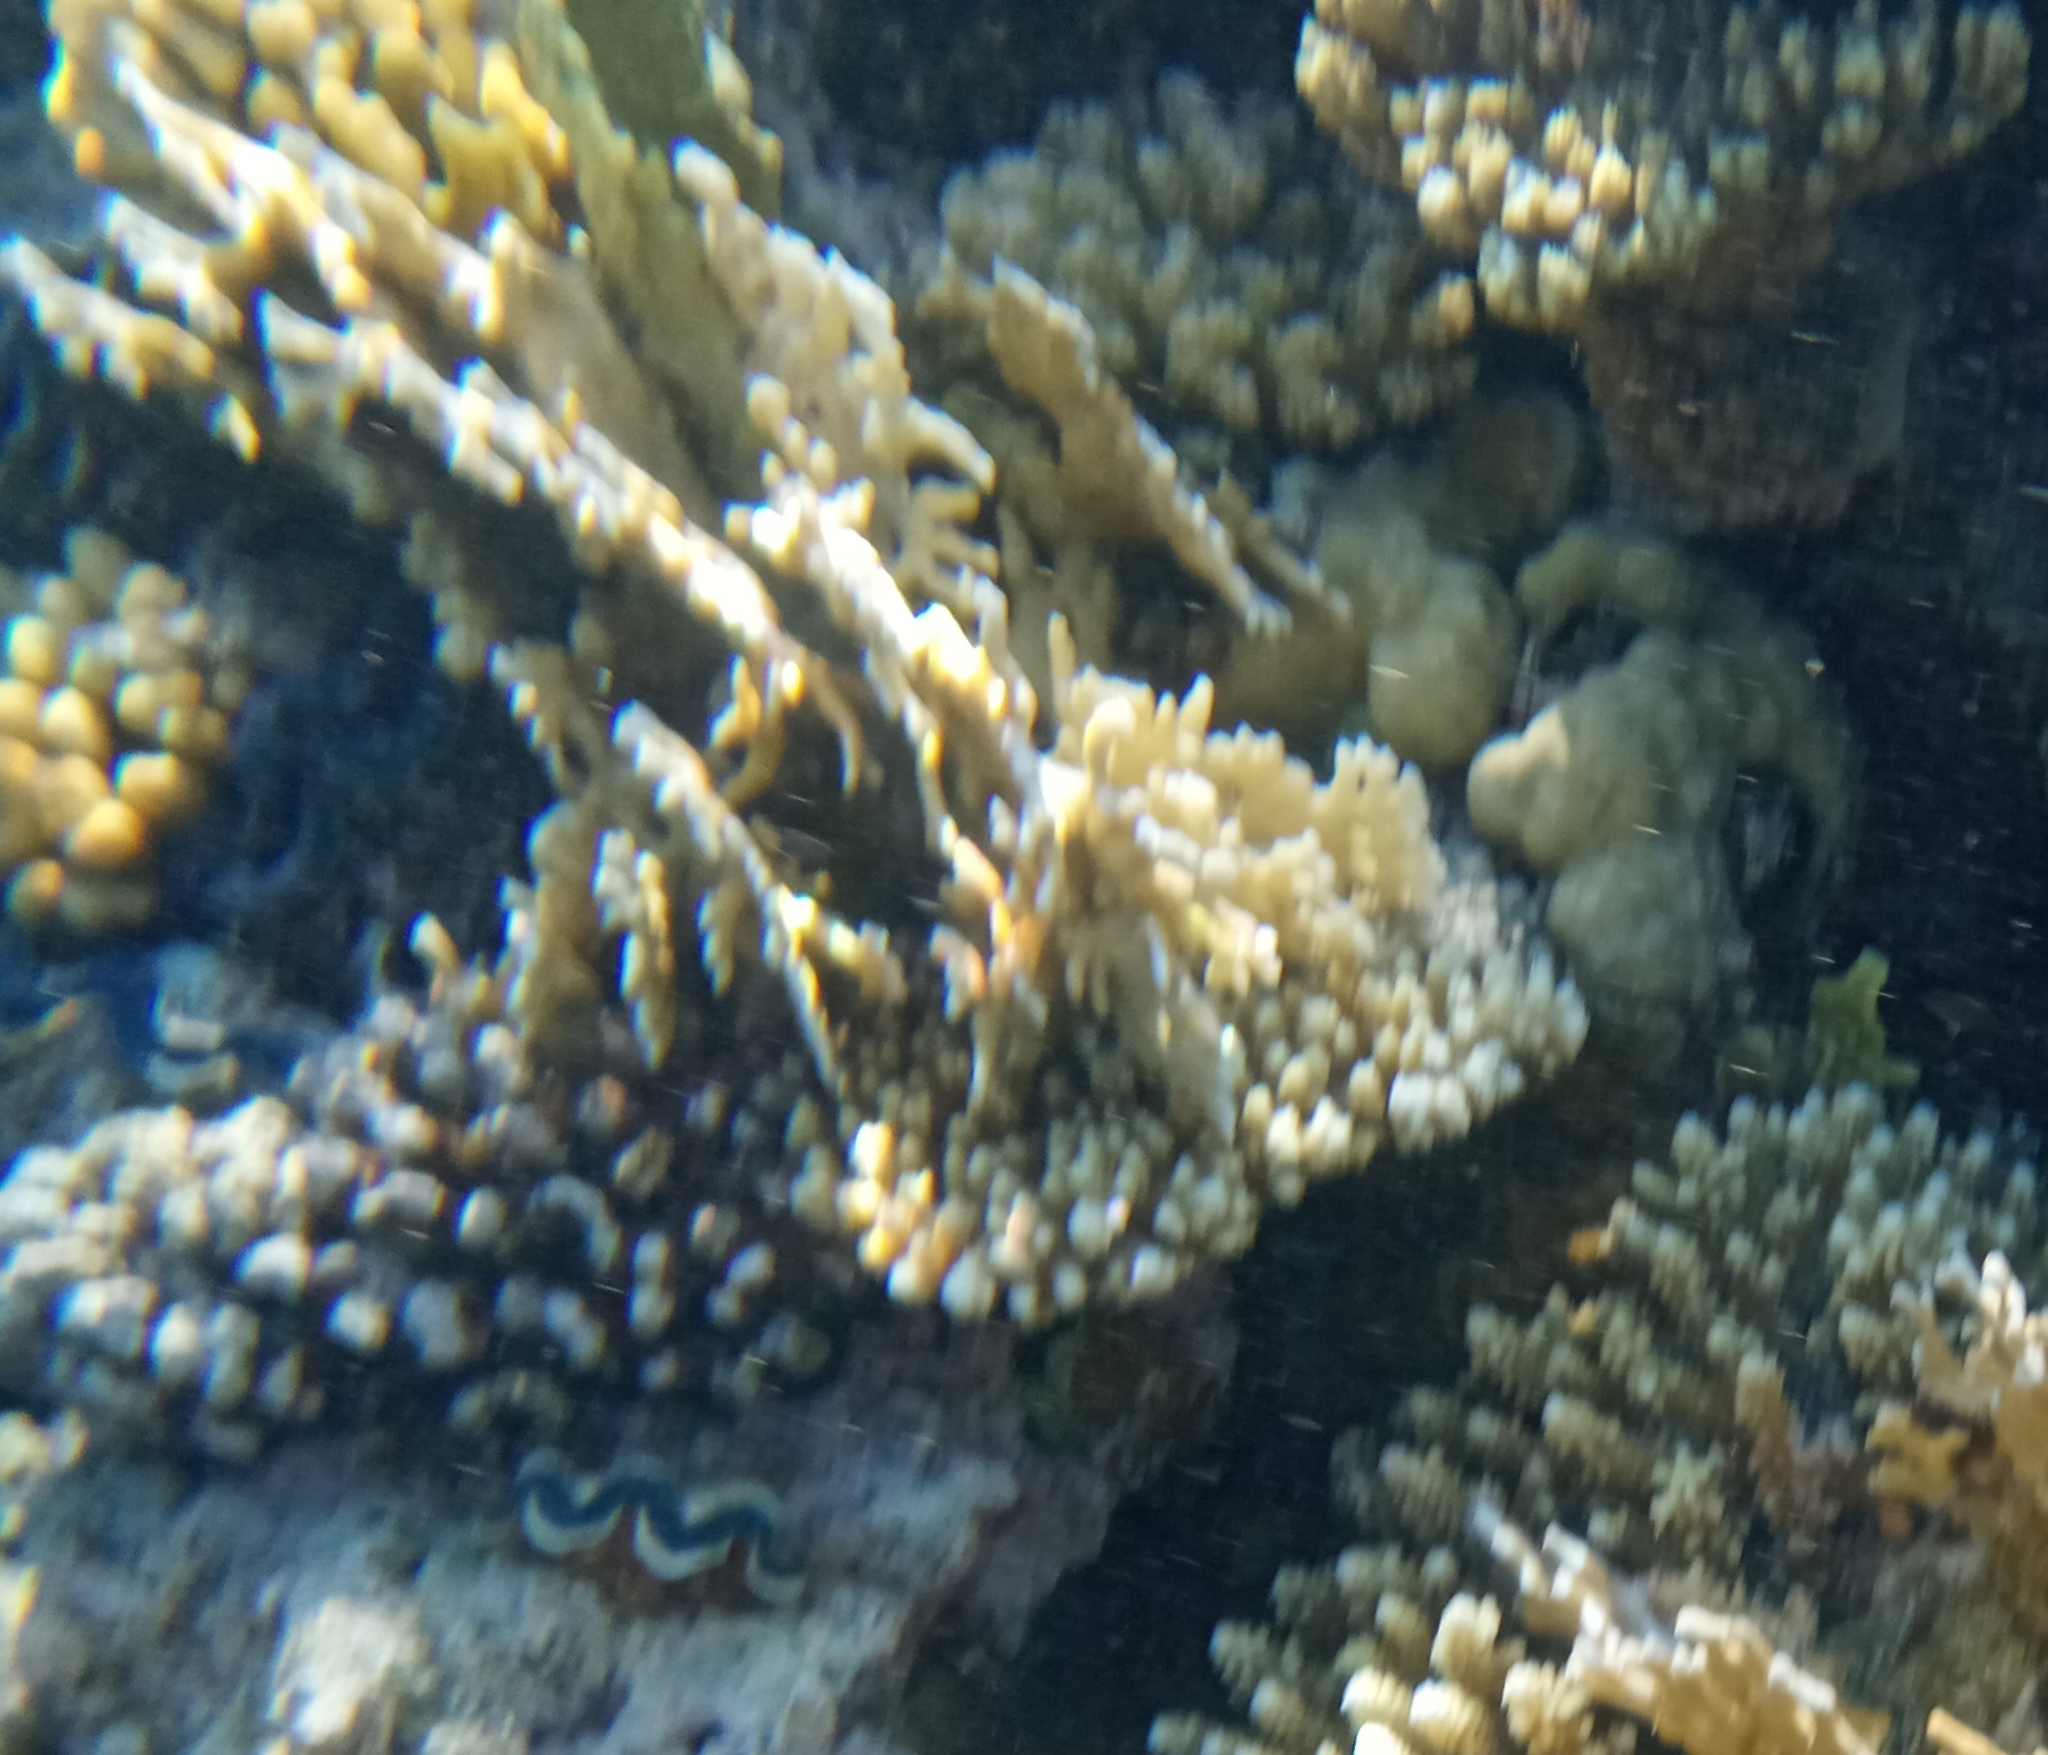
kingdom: Animalia
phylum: Cnidaria
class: Hydrozoa
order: Anthoathecata
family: Milleporidae
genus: Millepora
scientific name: Millepora dichotoma
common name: Ramified fire coral
